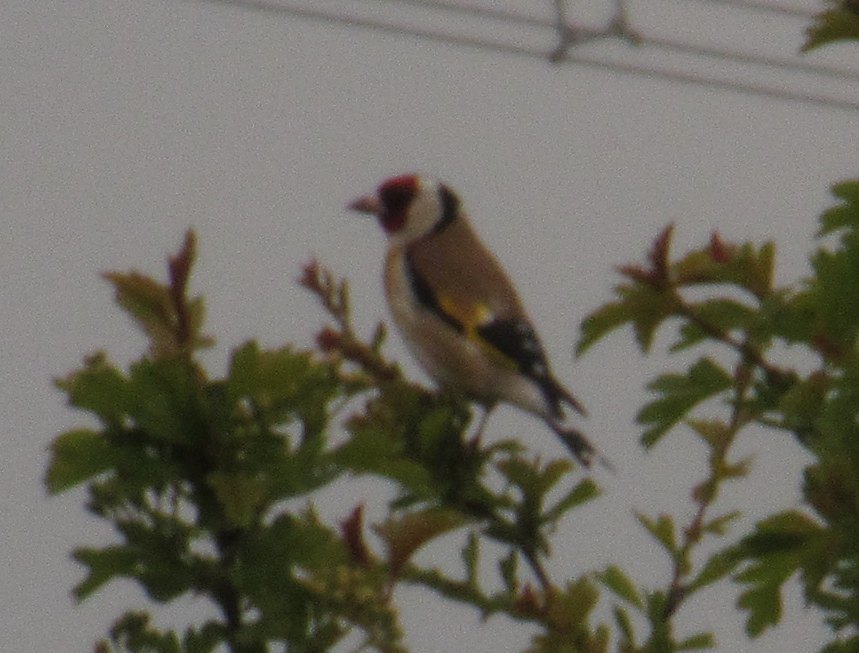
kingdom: Animalia
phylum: Chordata
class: Aves
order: Passeriformes
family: Fringillidae
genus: Carduelis
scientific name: Carduelis carduelis
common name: European goldfinch
